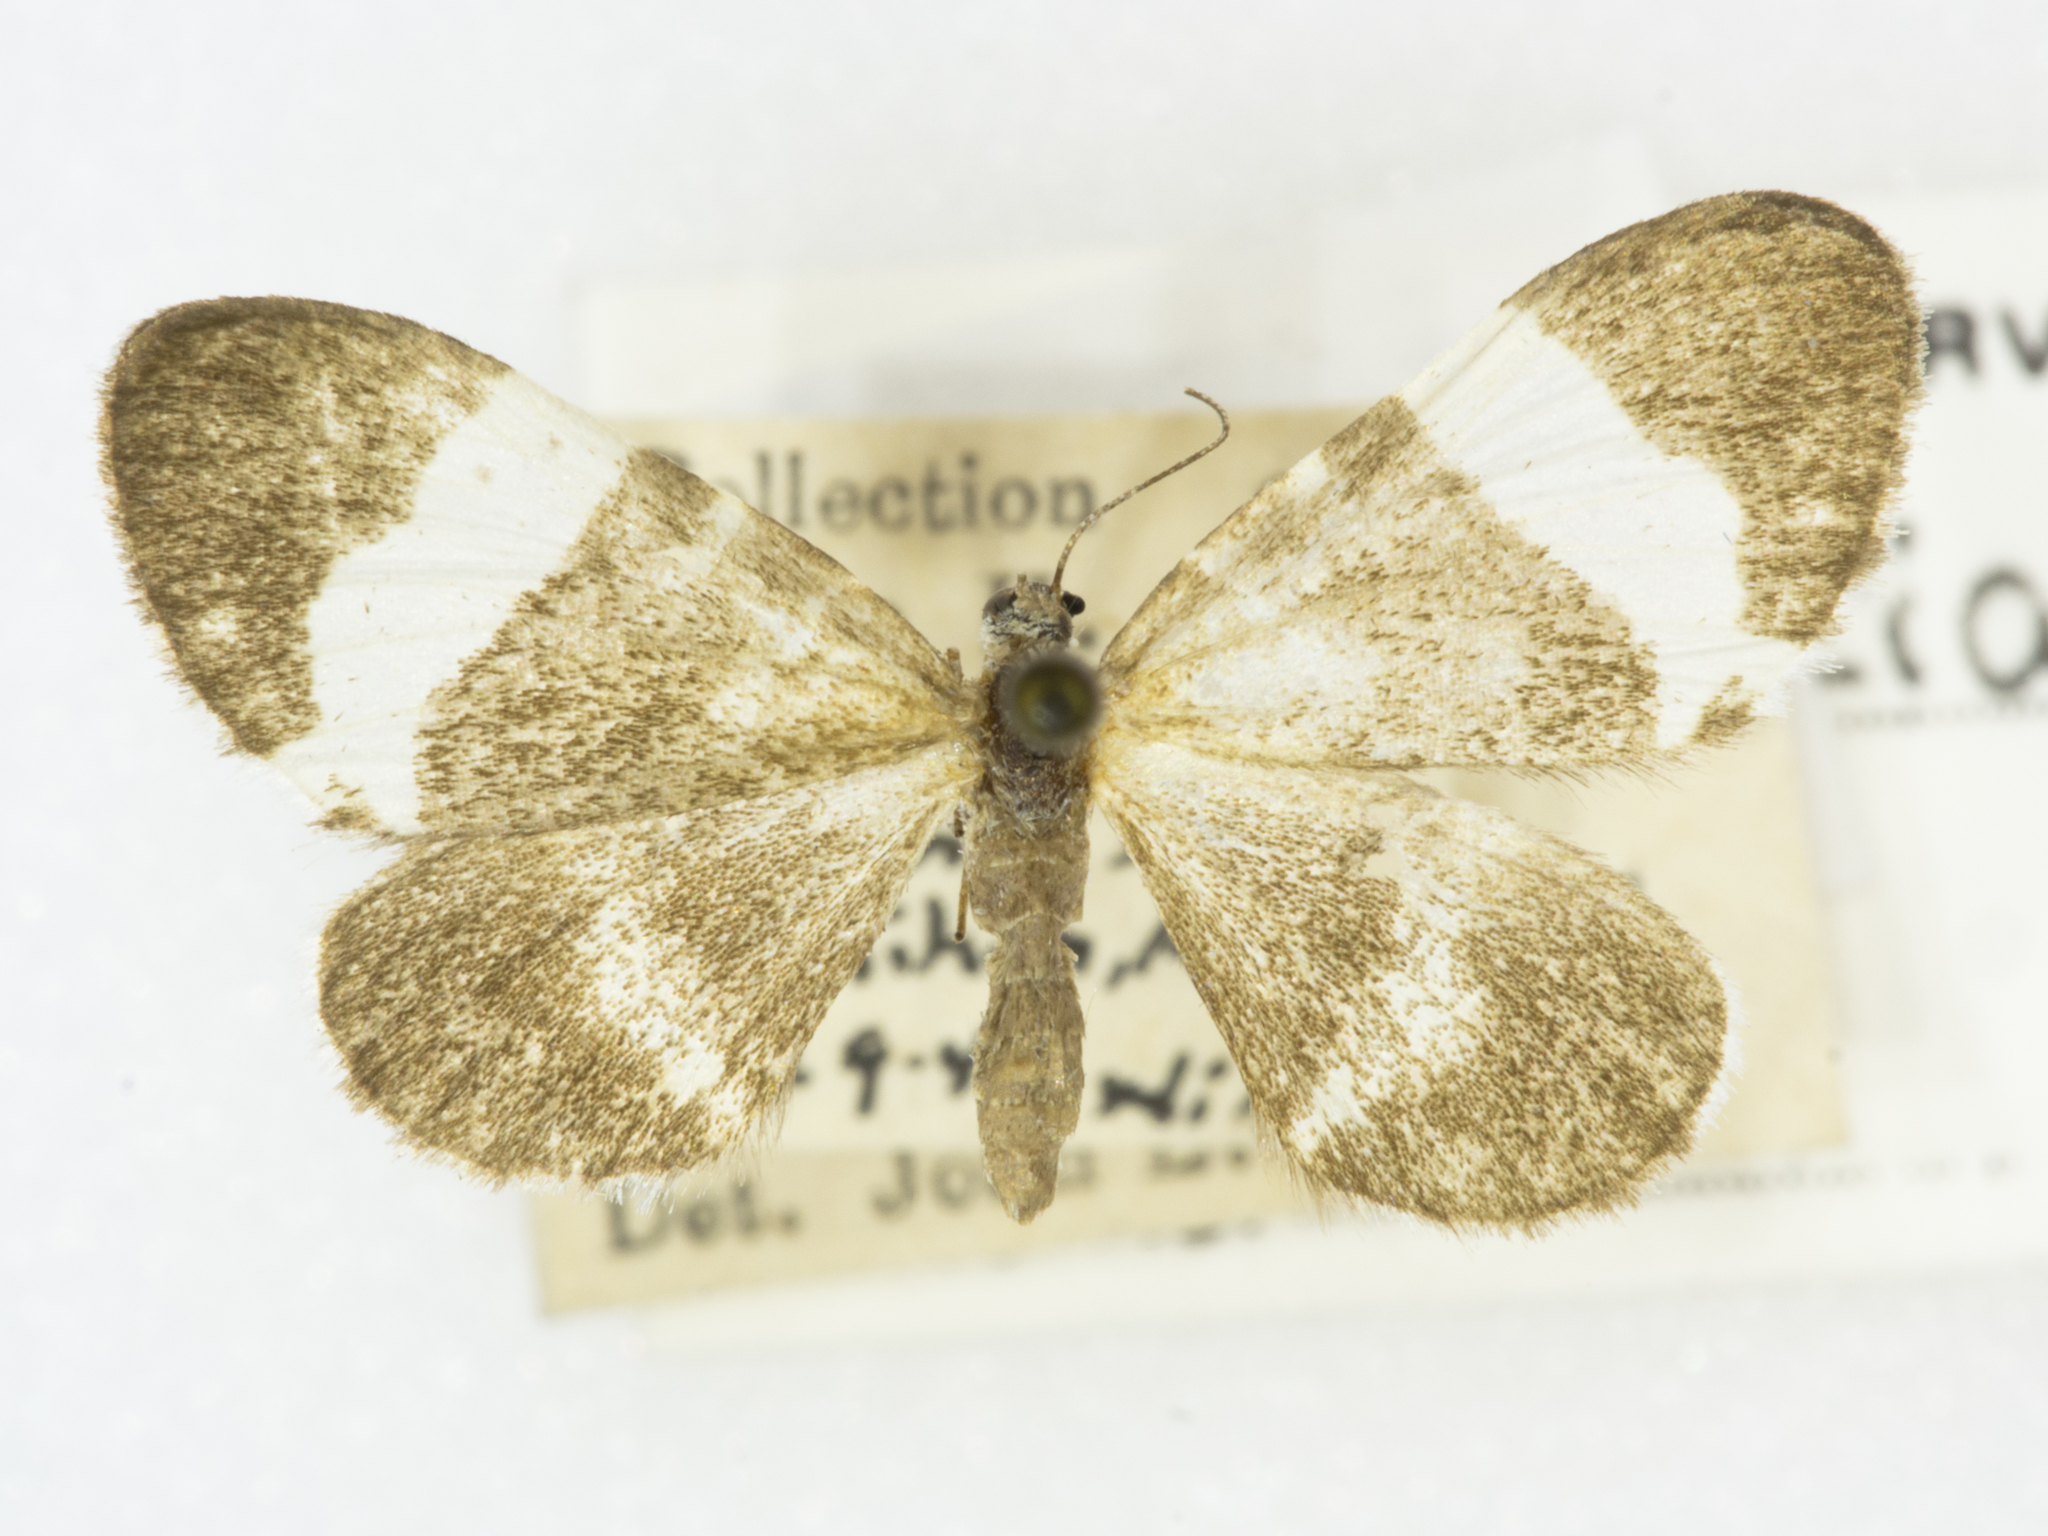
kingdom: Animalia
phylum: Arthropoda
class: Insecta
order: Lepidoptera
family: Geometridae
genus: Trichodezia
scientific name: Trichodezia albovittata
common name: White striped black
